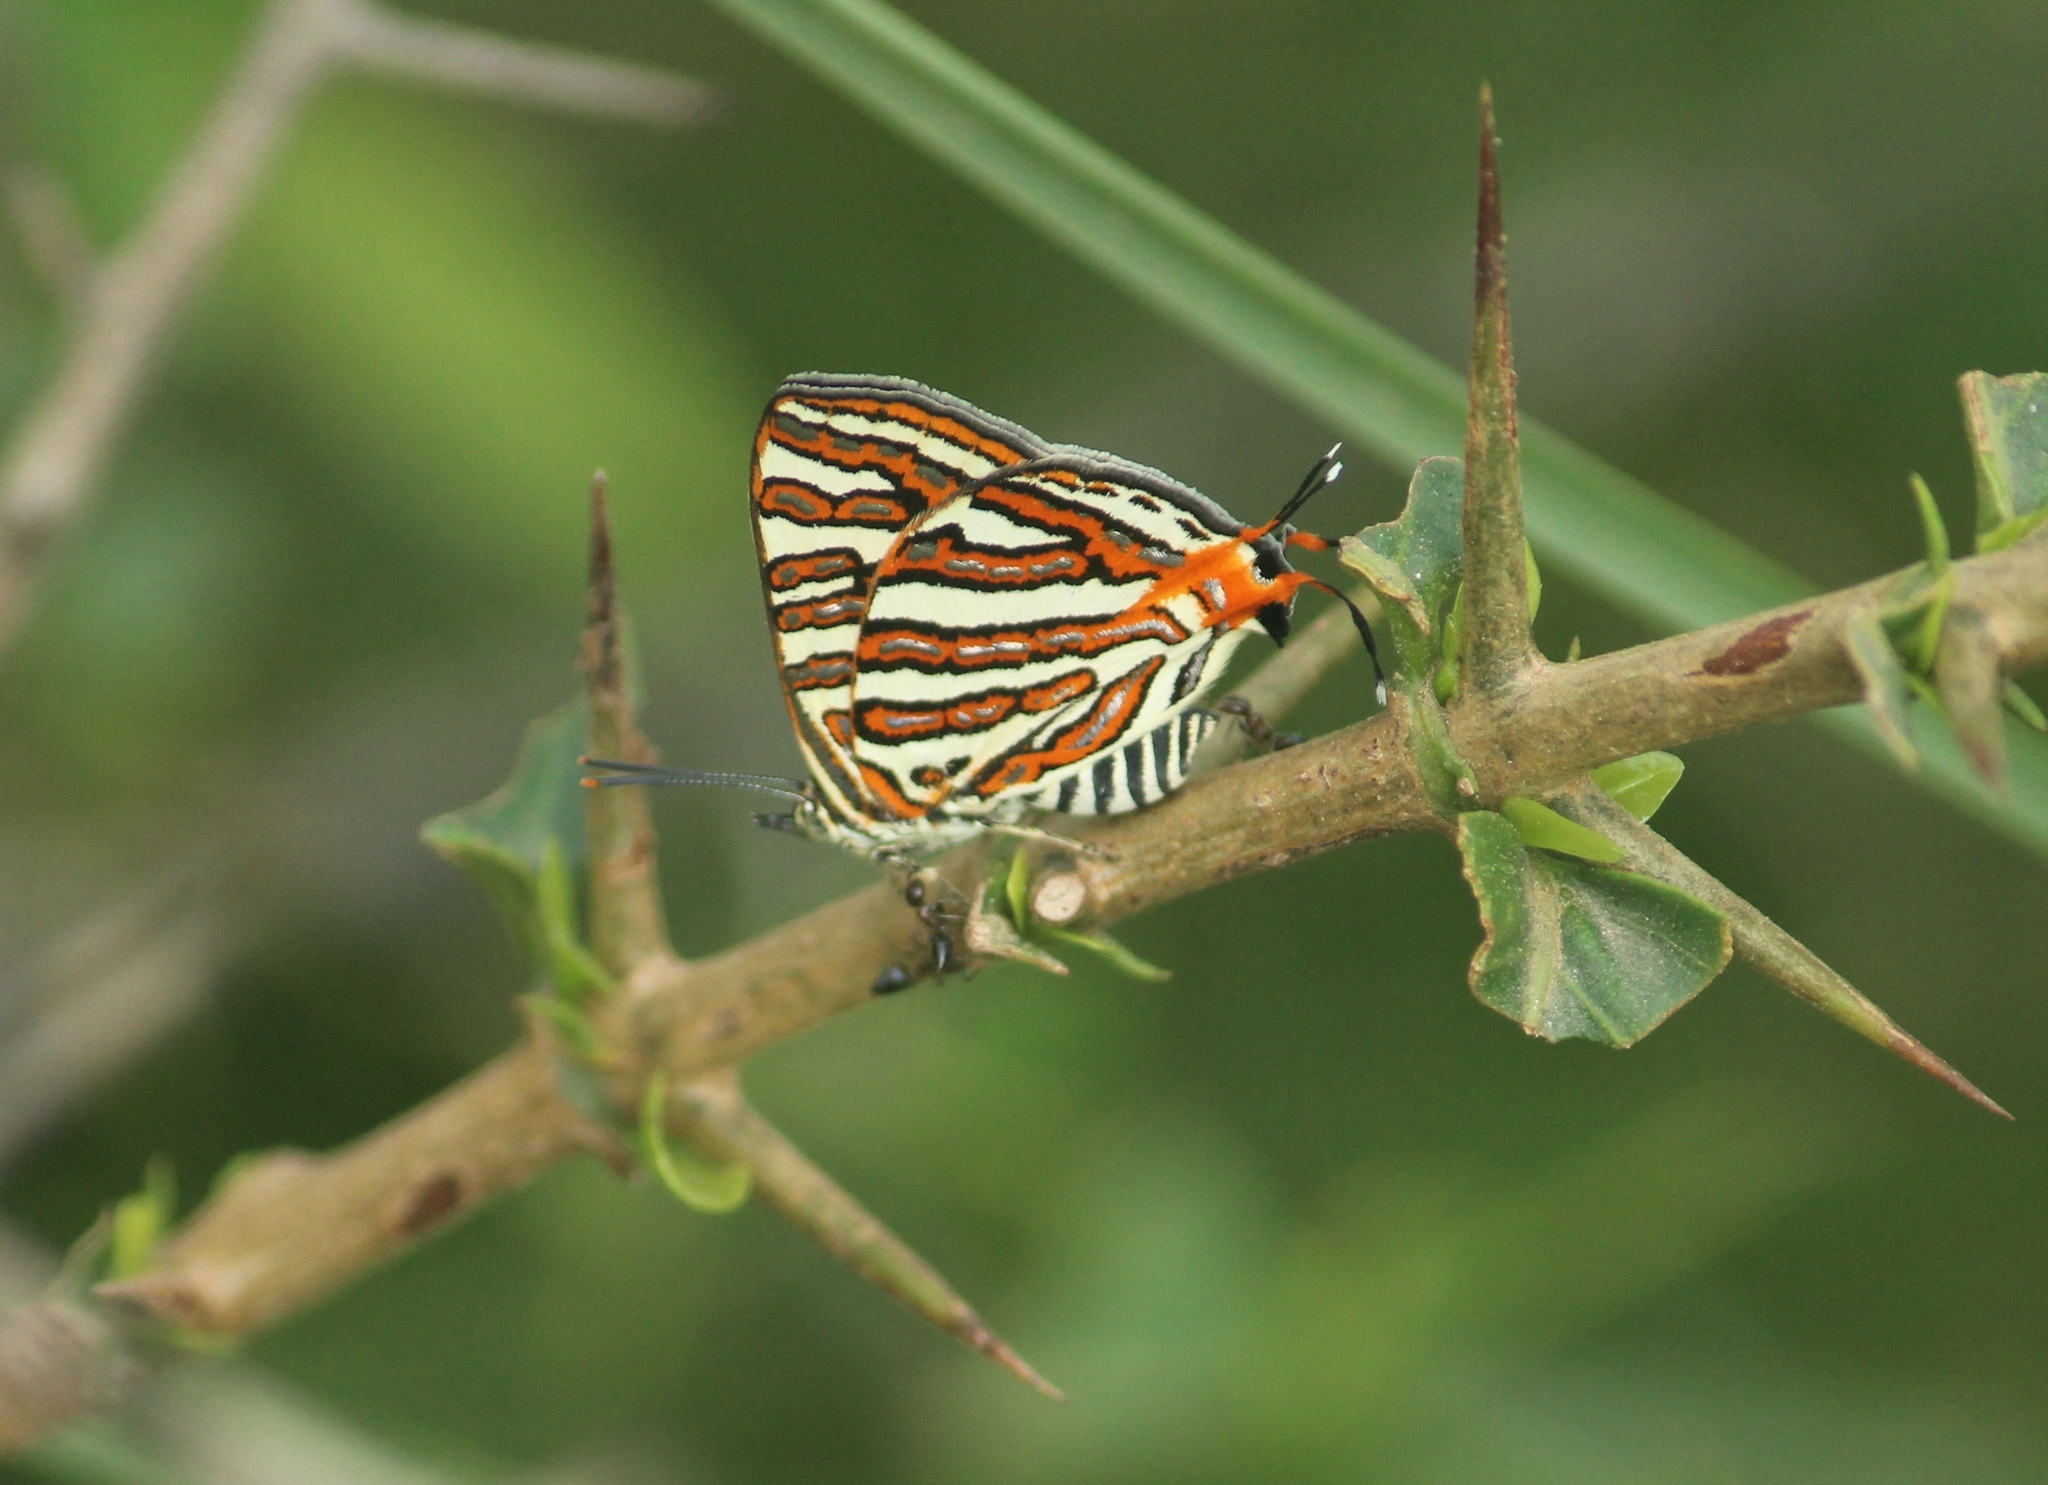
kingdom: Animalia
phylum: Arthropoda
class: Insecta
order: Lepidoptera
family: Lycaenidae
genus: Cigaritis
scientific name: Cigaritis vulcanus
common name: Common silverline
